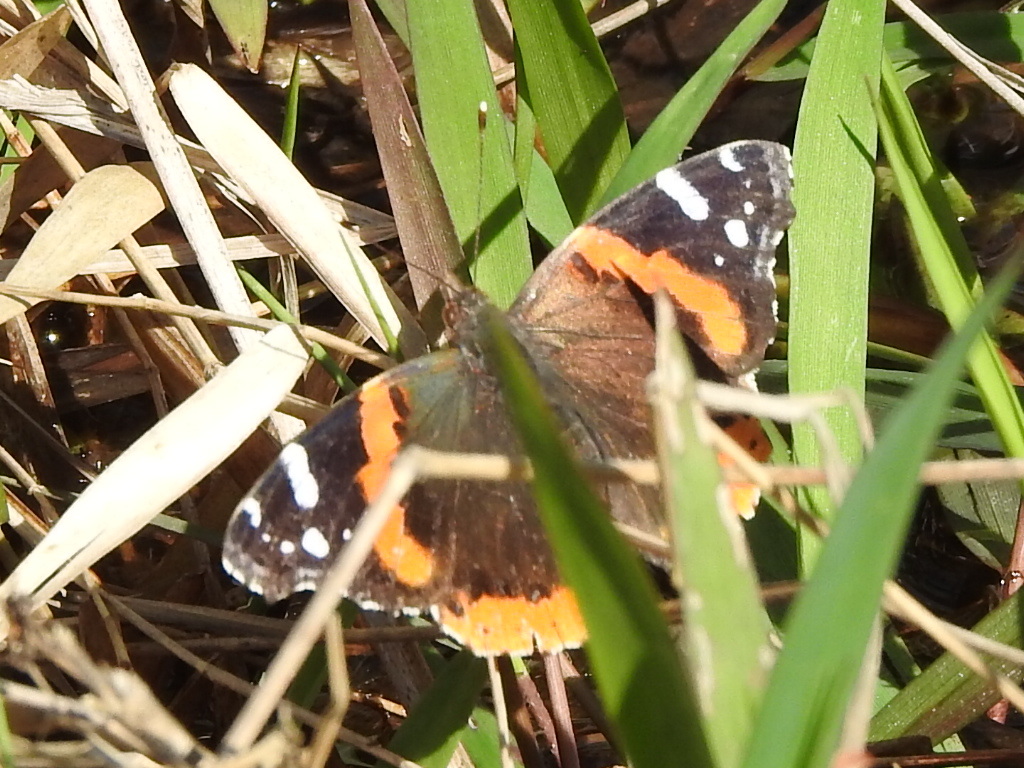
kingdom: Animalia
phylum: Arthropoda
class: Insecta
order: Lepidoptera
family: Nymphalidae
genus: Vanessa
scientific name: Vanessa atalanta
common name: Red admiral
